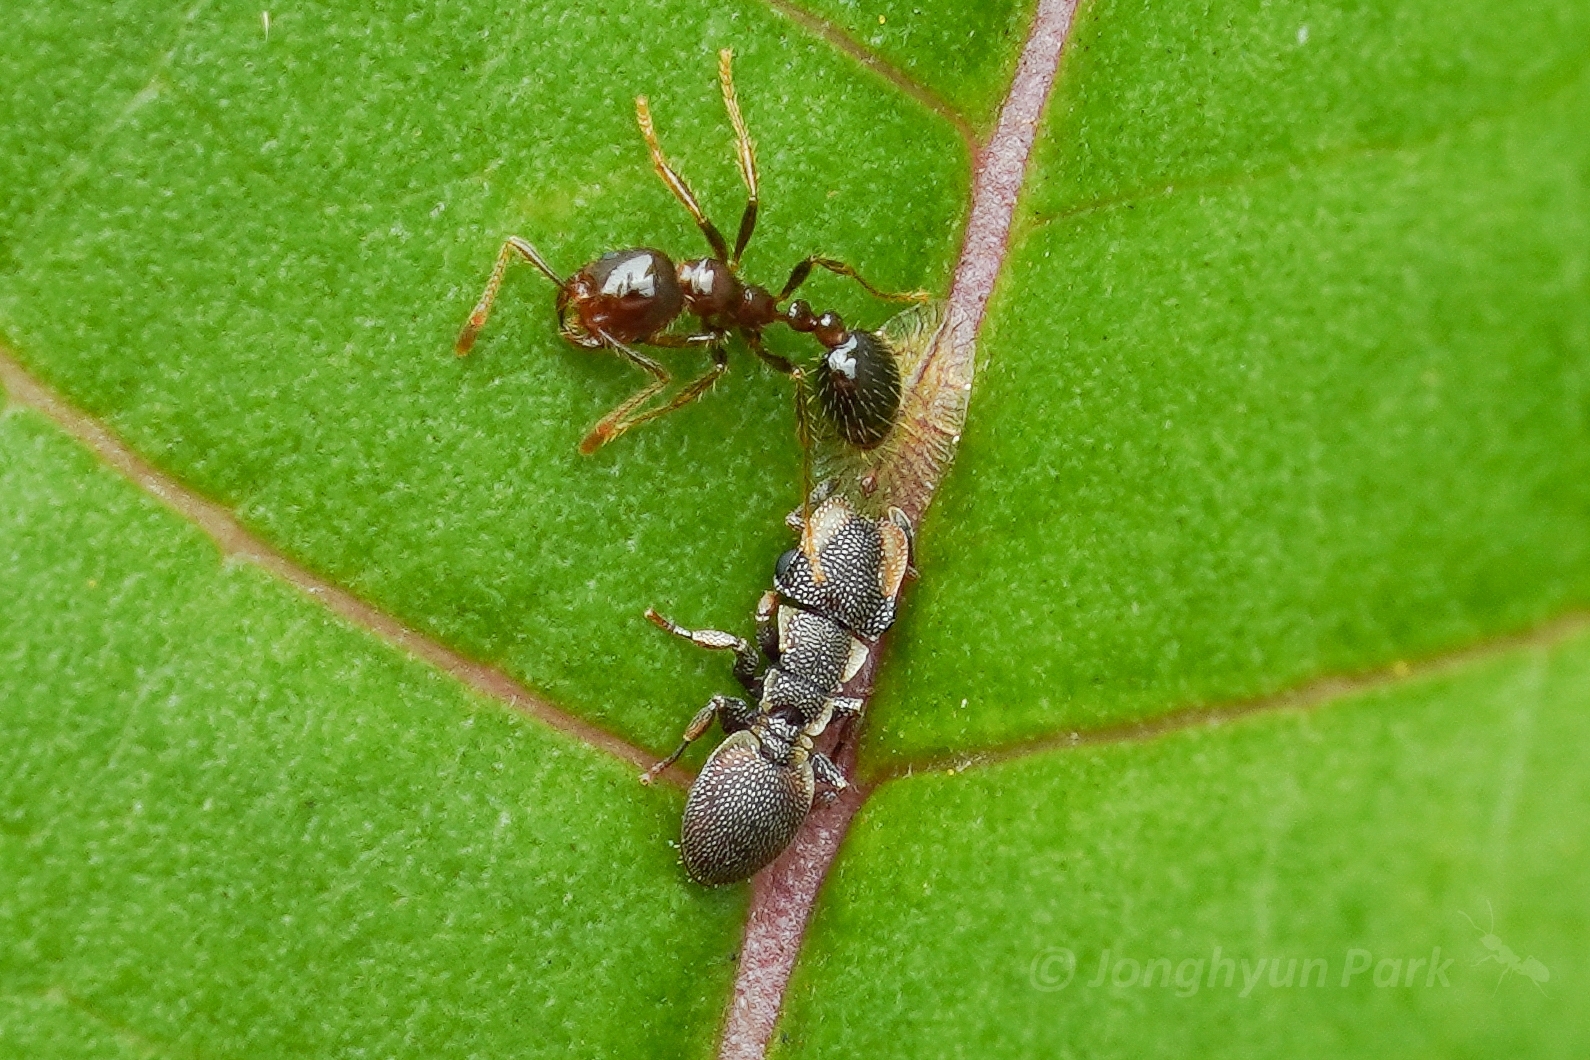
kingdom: Animalia
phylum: Arthropoda
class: Insecta
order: Hymenoptera
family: Formicidae
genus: Cephalotes
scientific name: Cephalotes maculatus
